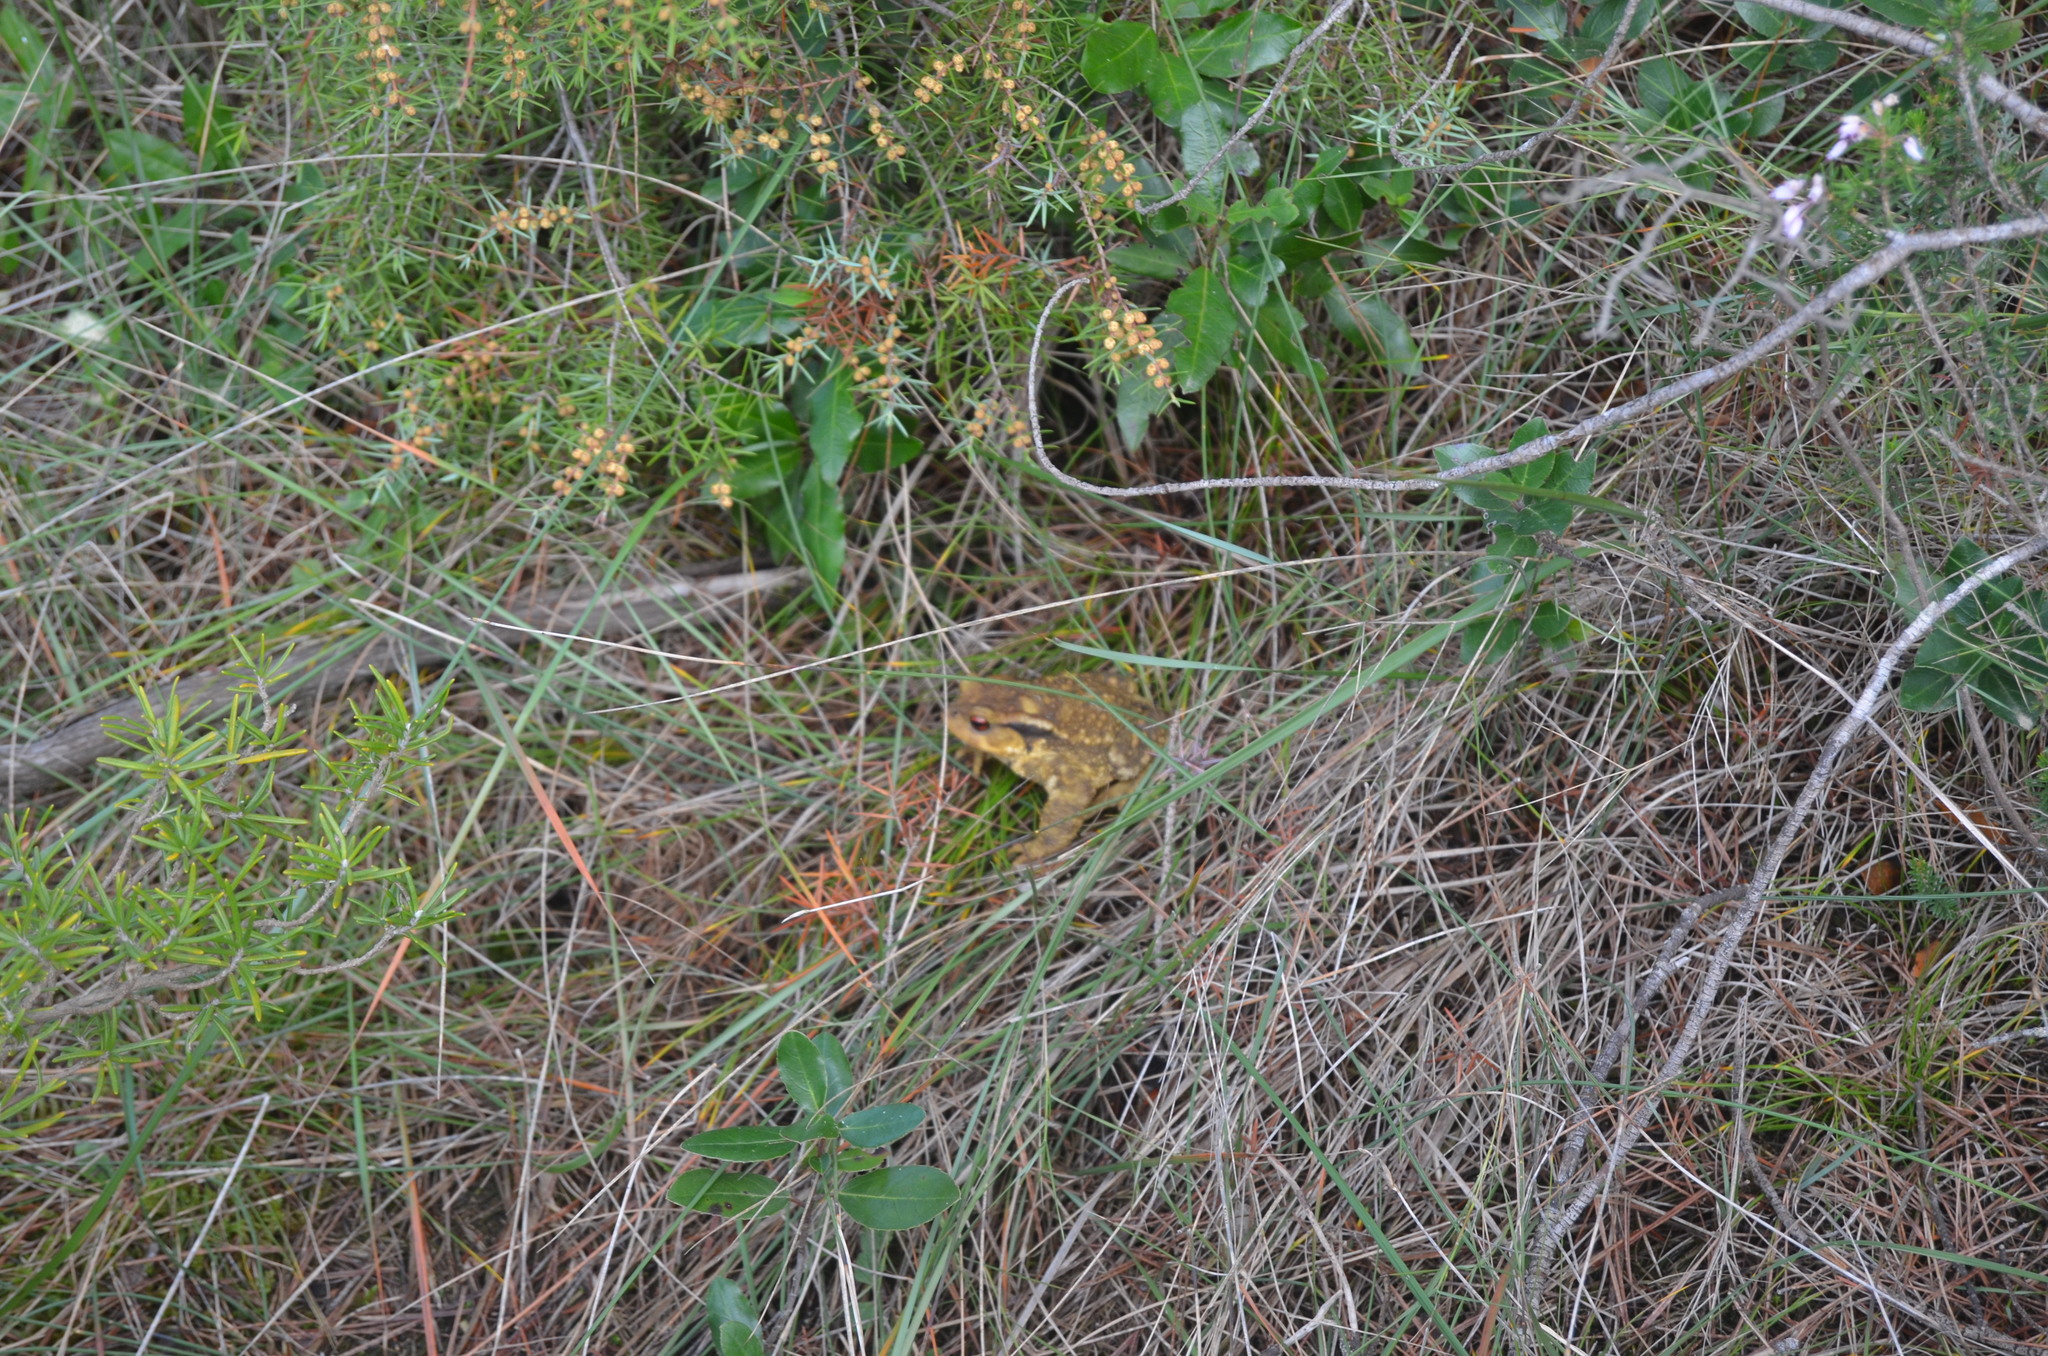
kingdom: Animalia
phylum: Chordata
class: Amphibia
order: Anura
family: Bufonidae
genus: Bufo
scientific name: Bufo spinosus
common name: Western common toad
